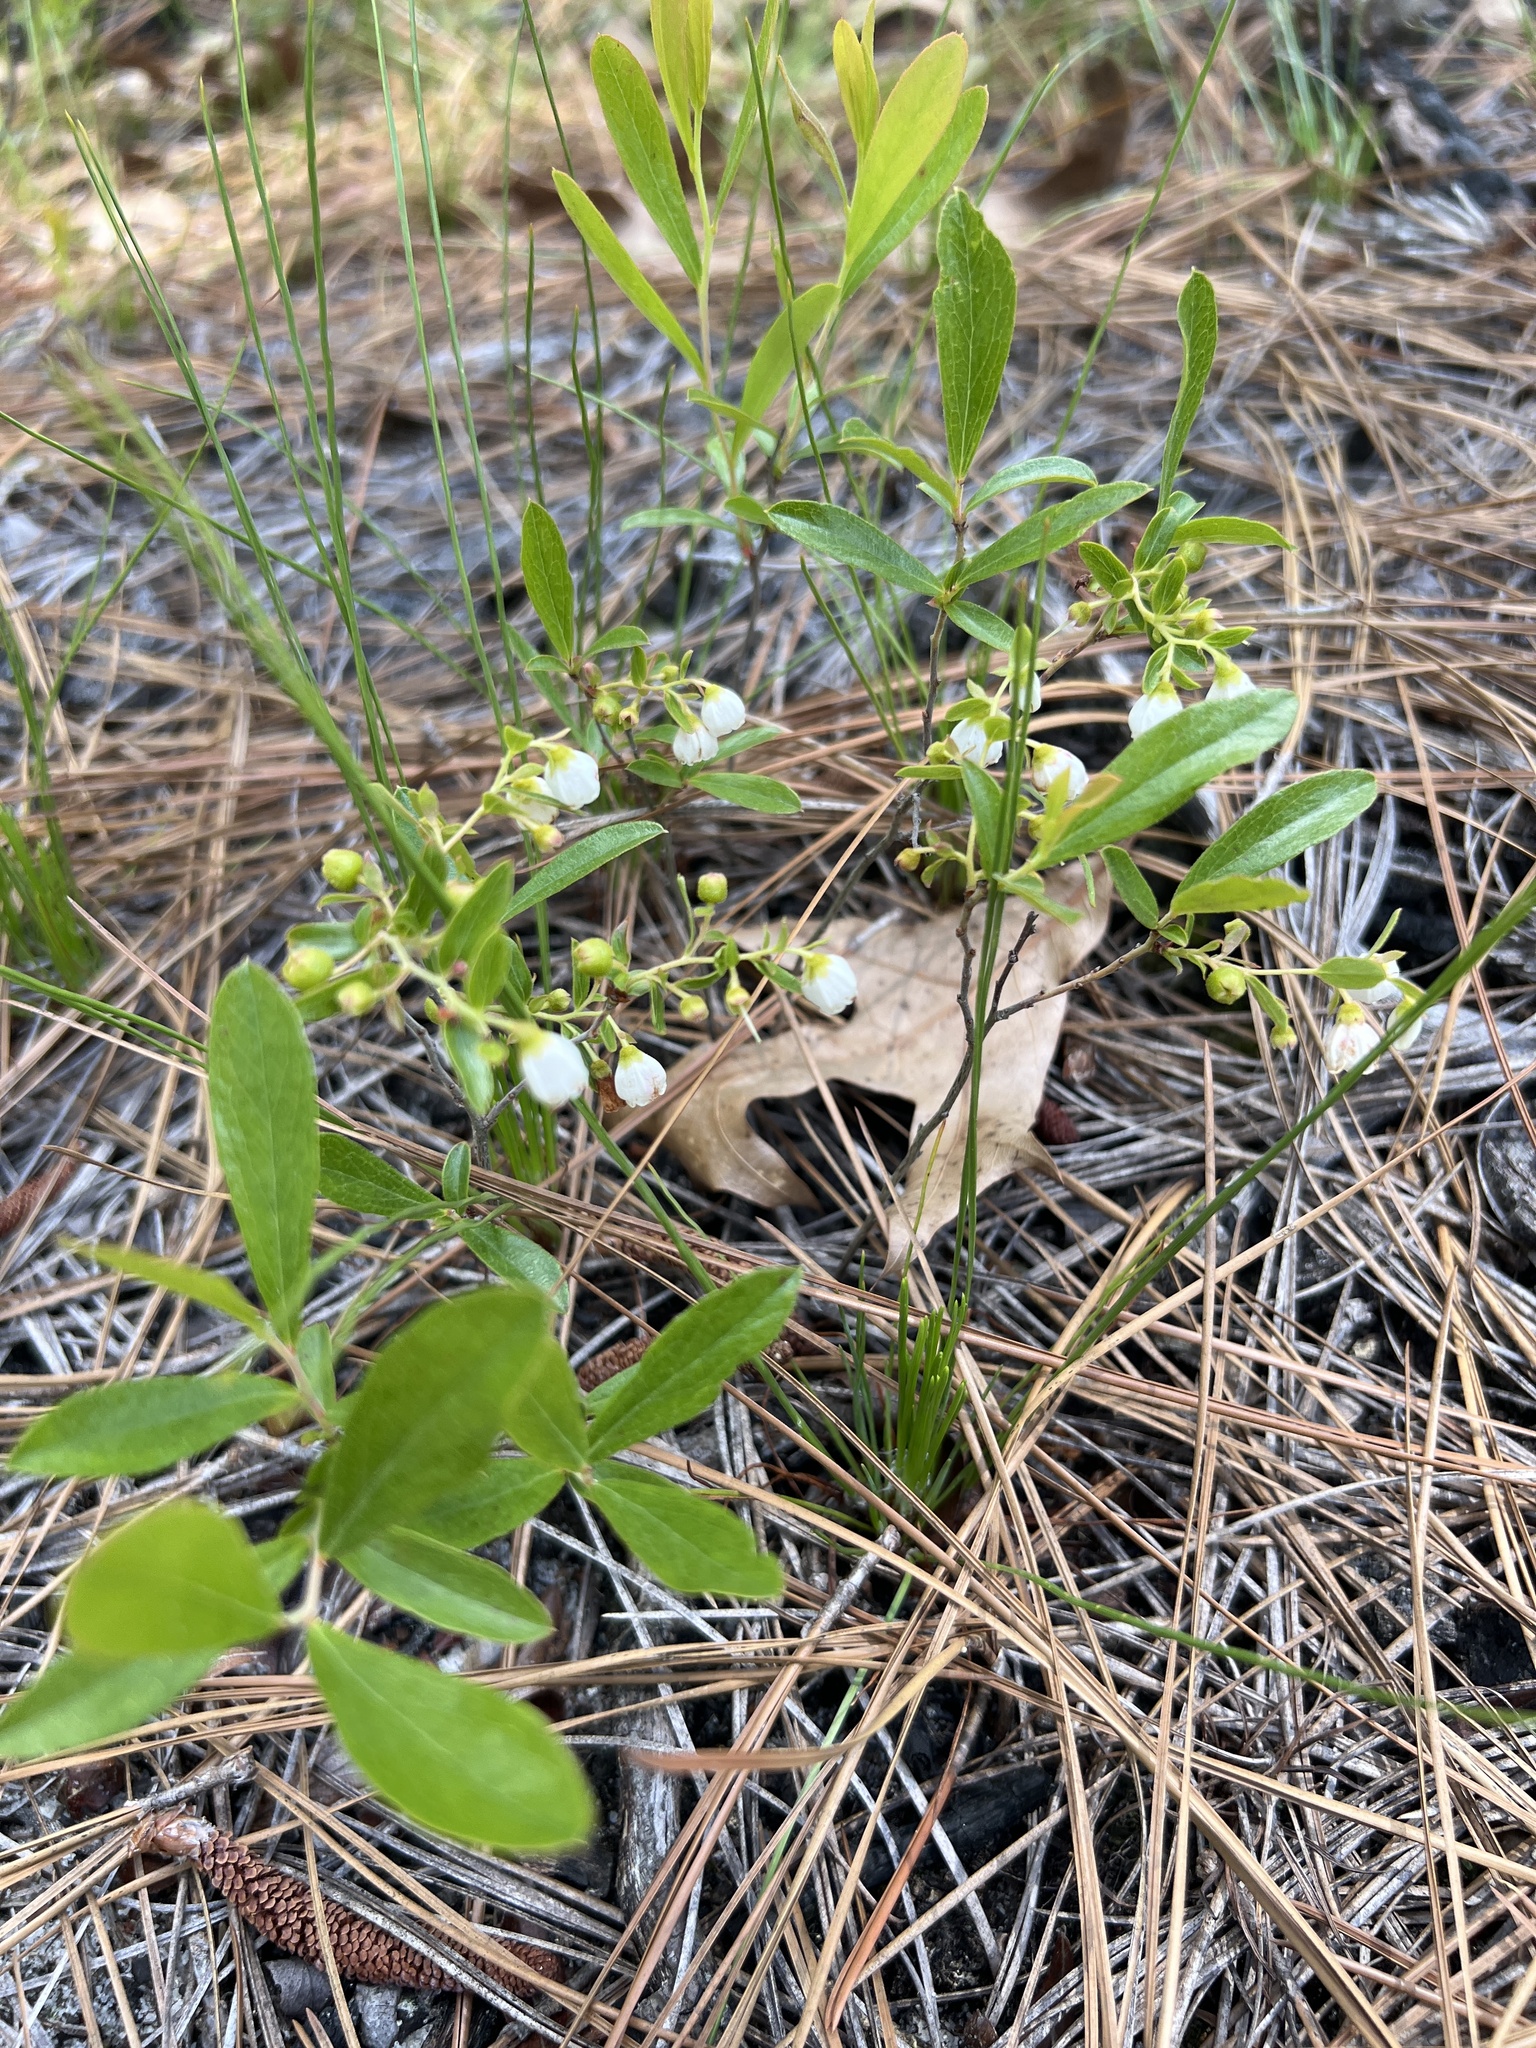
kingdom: Plantae
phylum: Tracheophyta
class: Magnoliopsida
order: Ericales
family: Ericaceae
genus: Gaylussacia
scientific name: Gaylussacia dumosa
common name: Dwarf huckleberry
